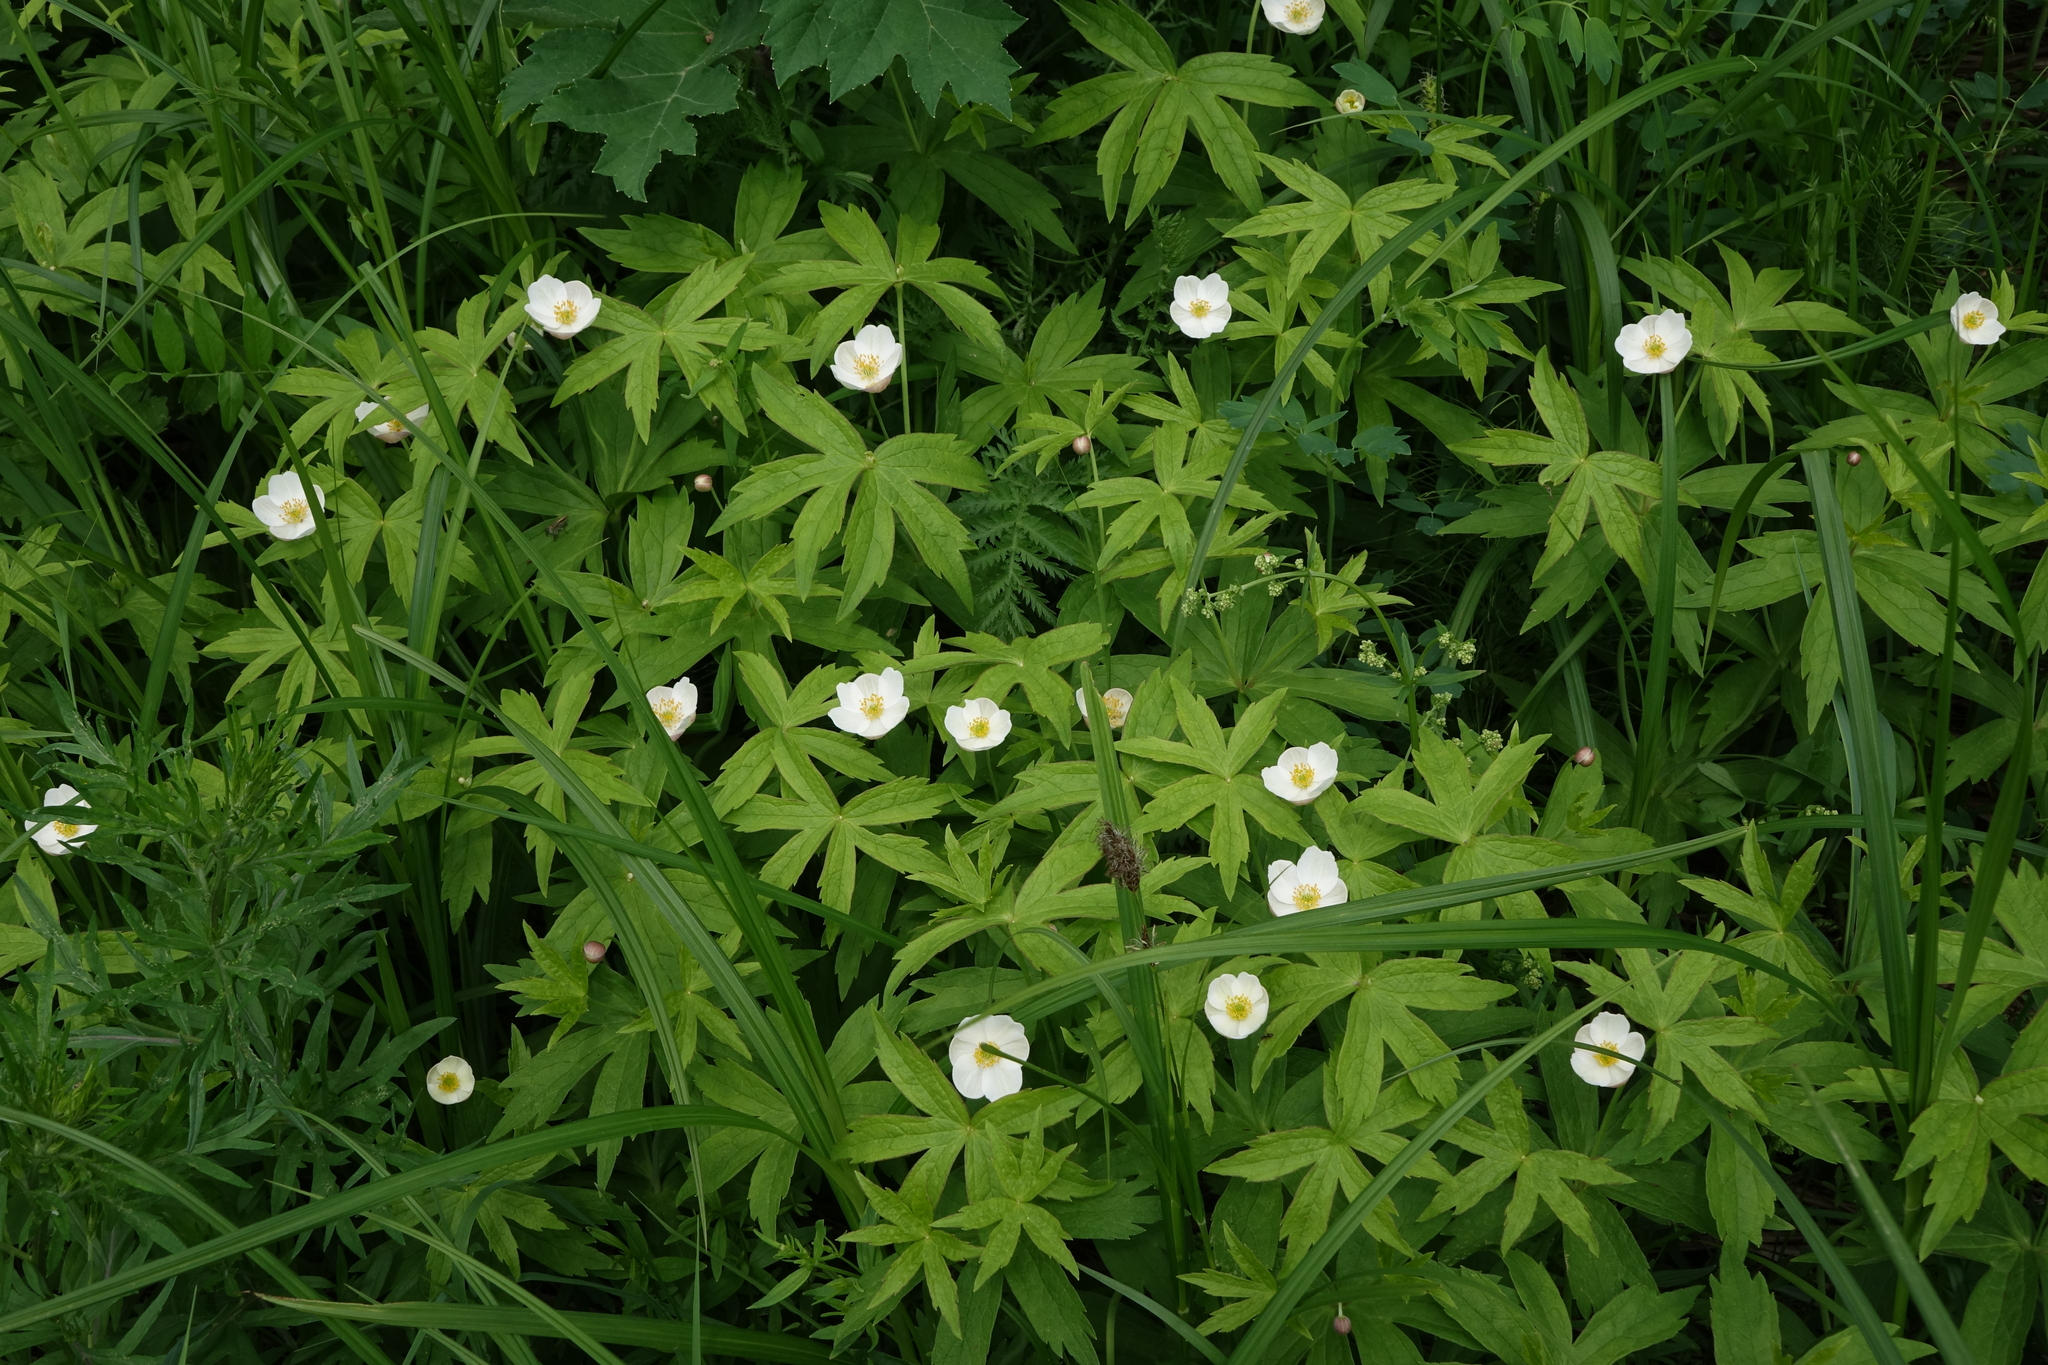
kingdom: Plantae
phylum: Tracheophyta
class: Magnoliopsida
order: Ranunculales
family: Ranunculaceae
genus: Anemonastrum
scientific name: Anemonastrum dichotomum
